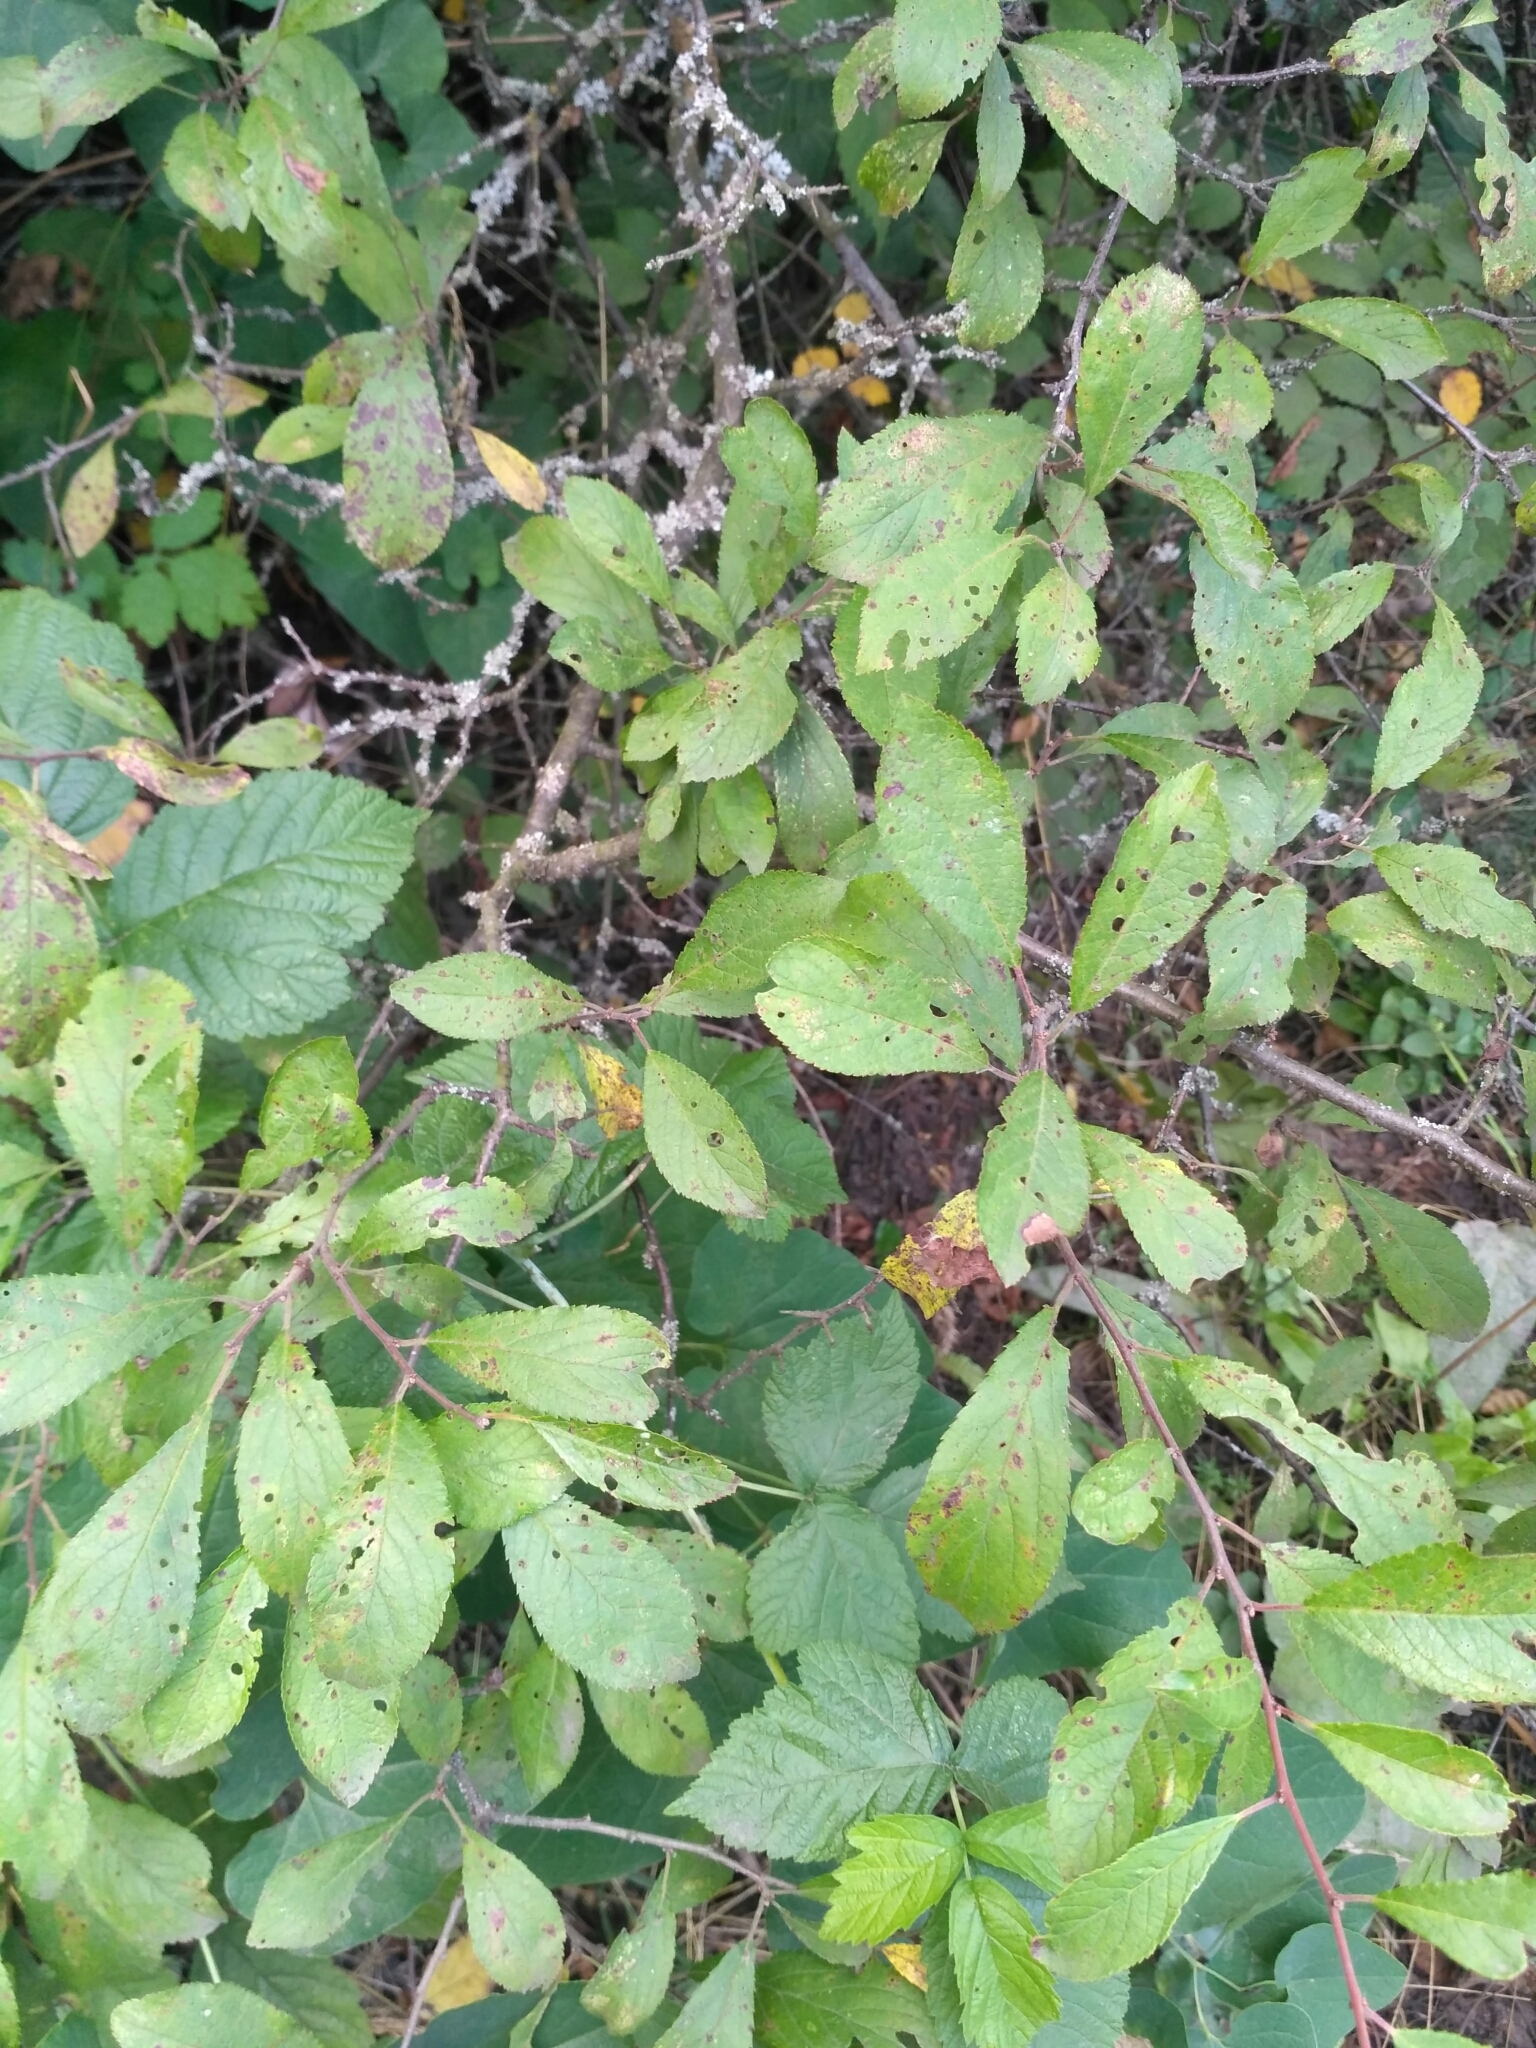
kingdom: Plantae
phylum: Tracheophyta
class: Magnoliopsida
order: Rosales
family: Rosaceae
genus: Prunus
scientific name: Prunus spinosa
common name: Blackthorn
